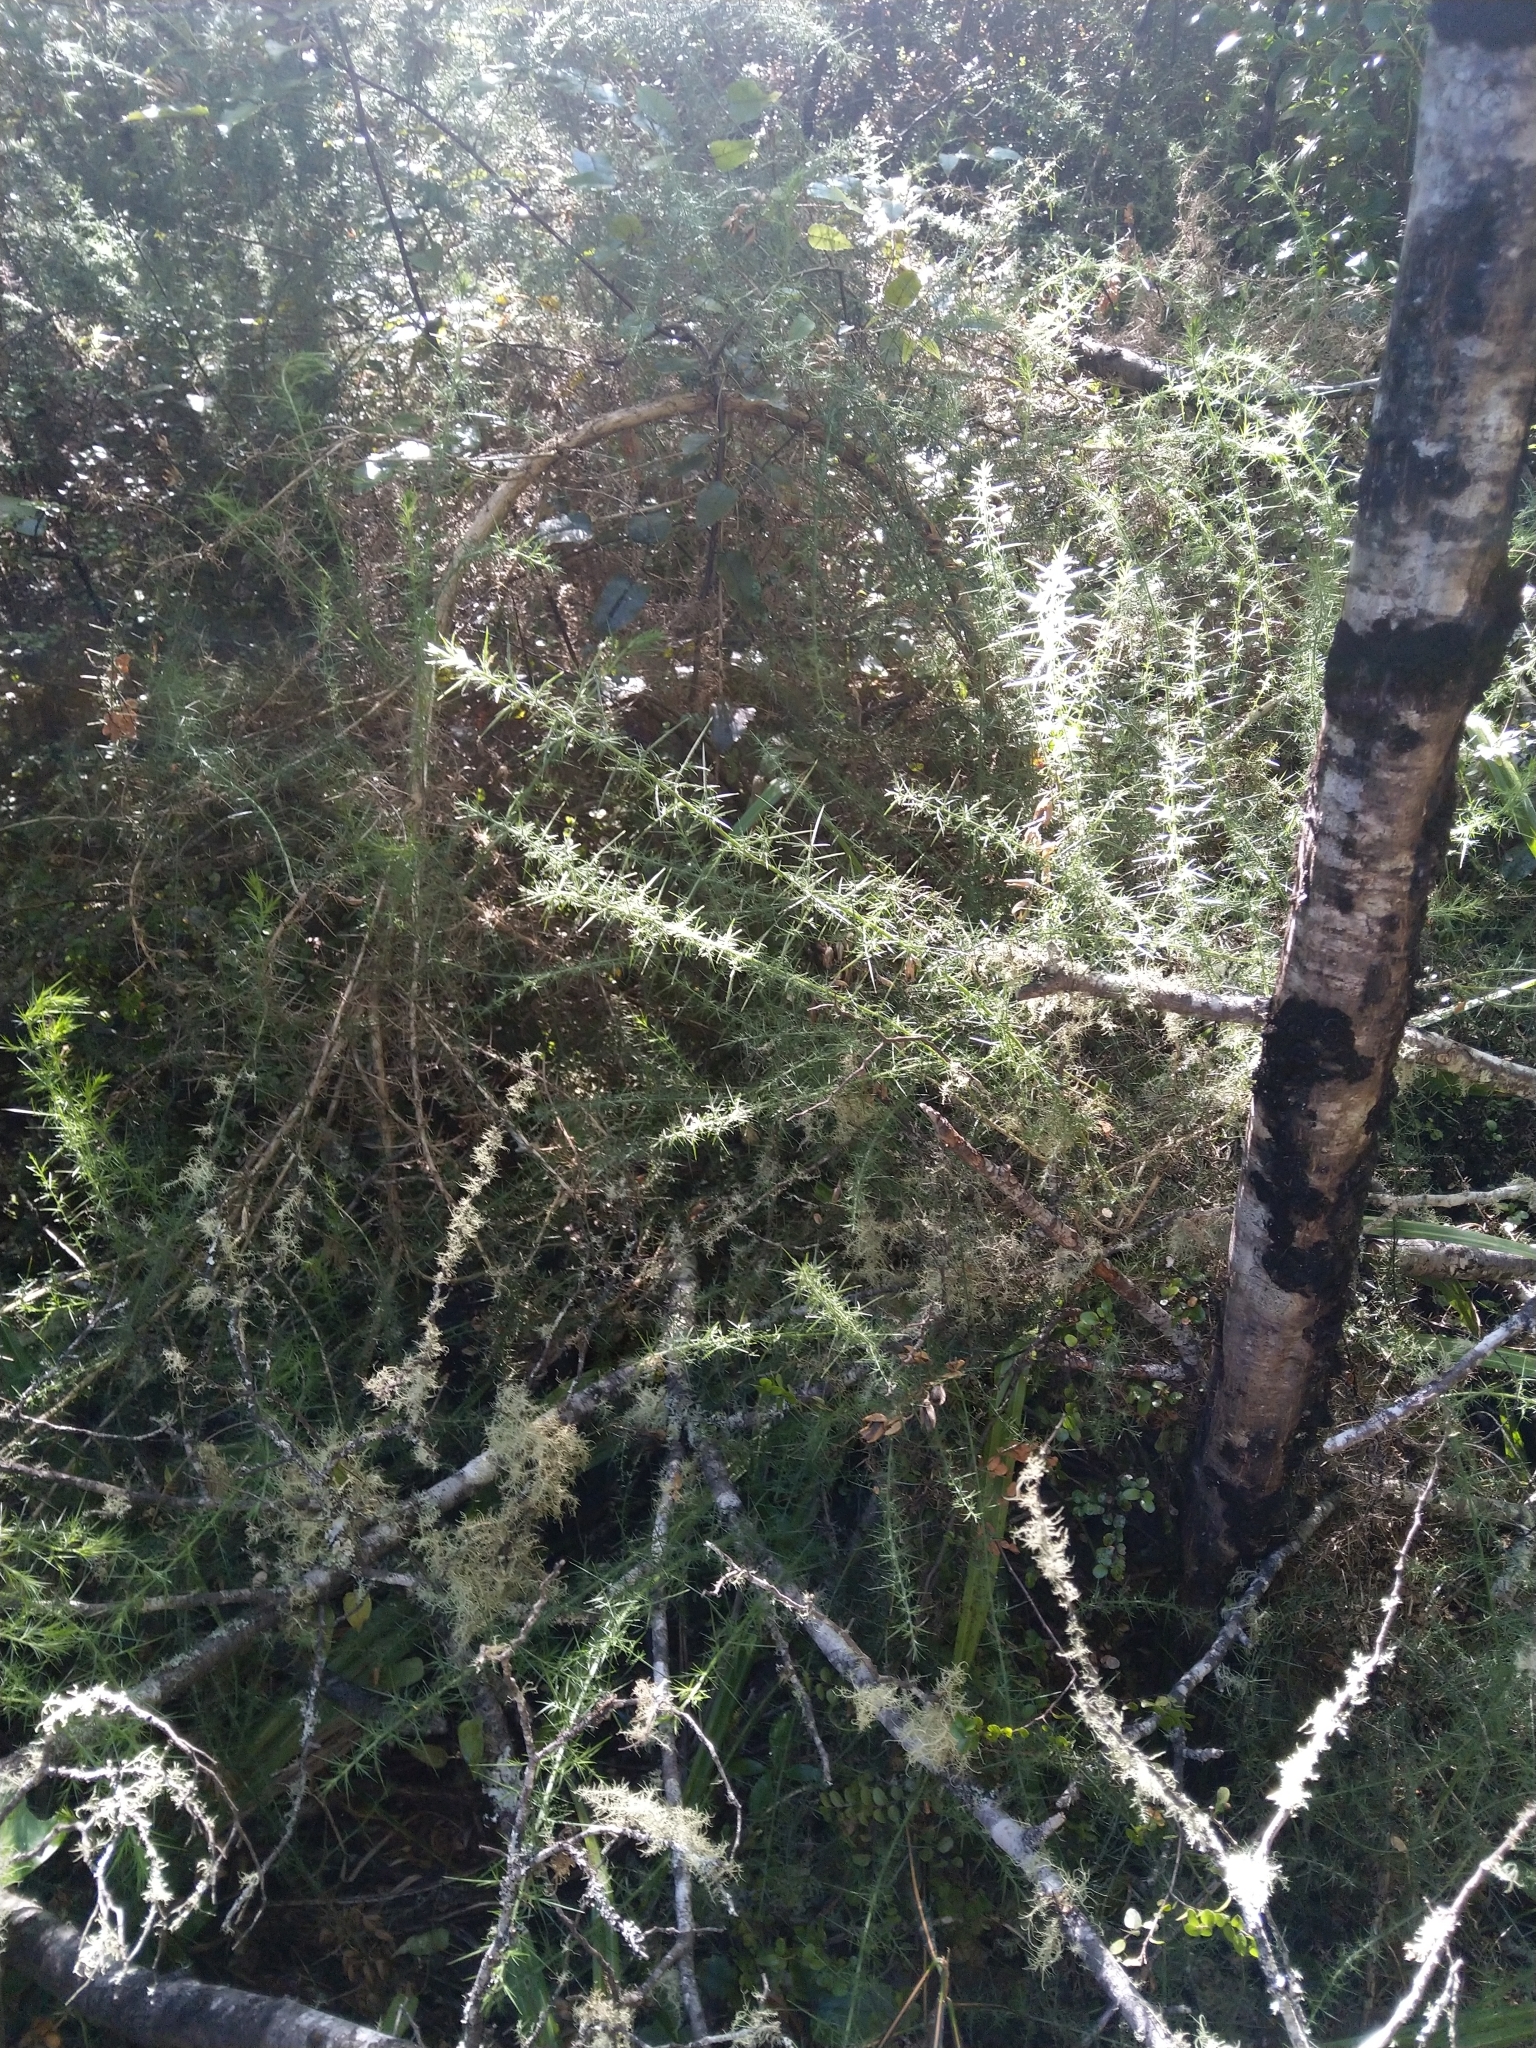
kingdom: Plantae
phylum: Tracheophyta
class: Magnoliopsida
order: Fabales
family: Fabaceae
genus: Ulex
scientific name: Ulex europaeus
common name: Common gorse
